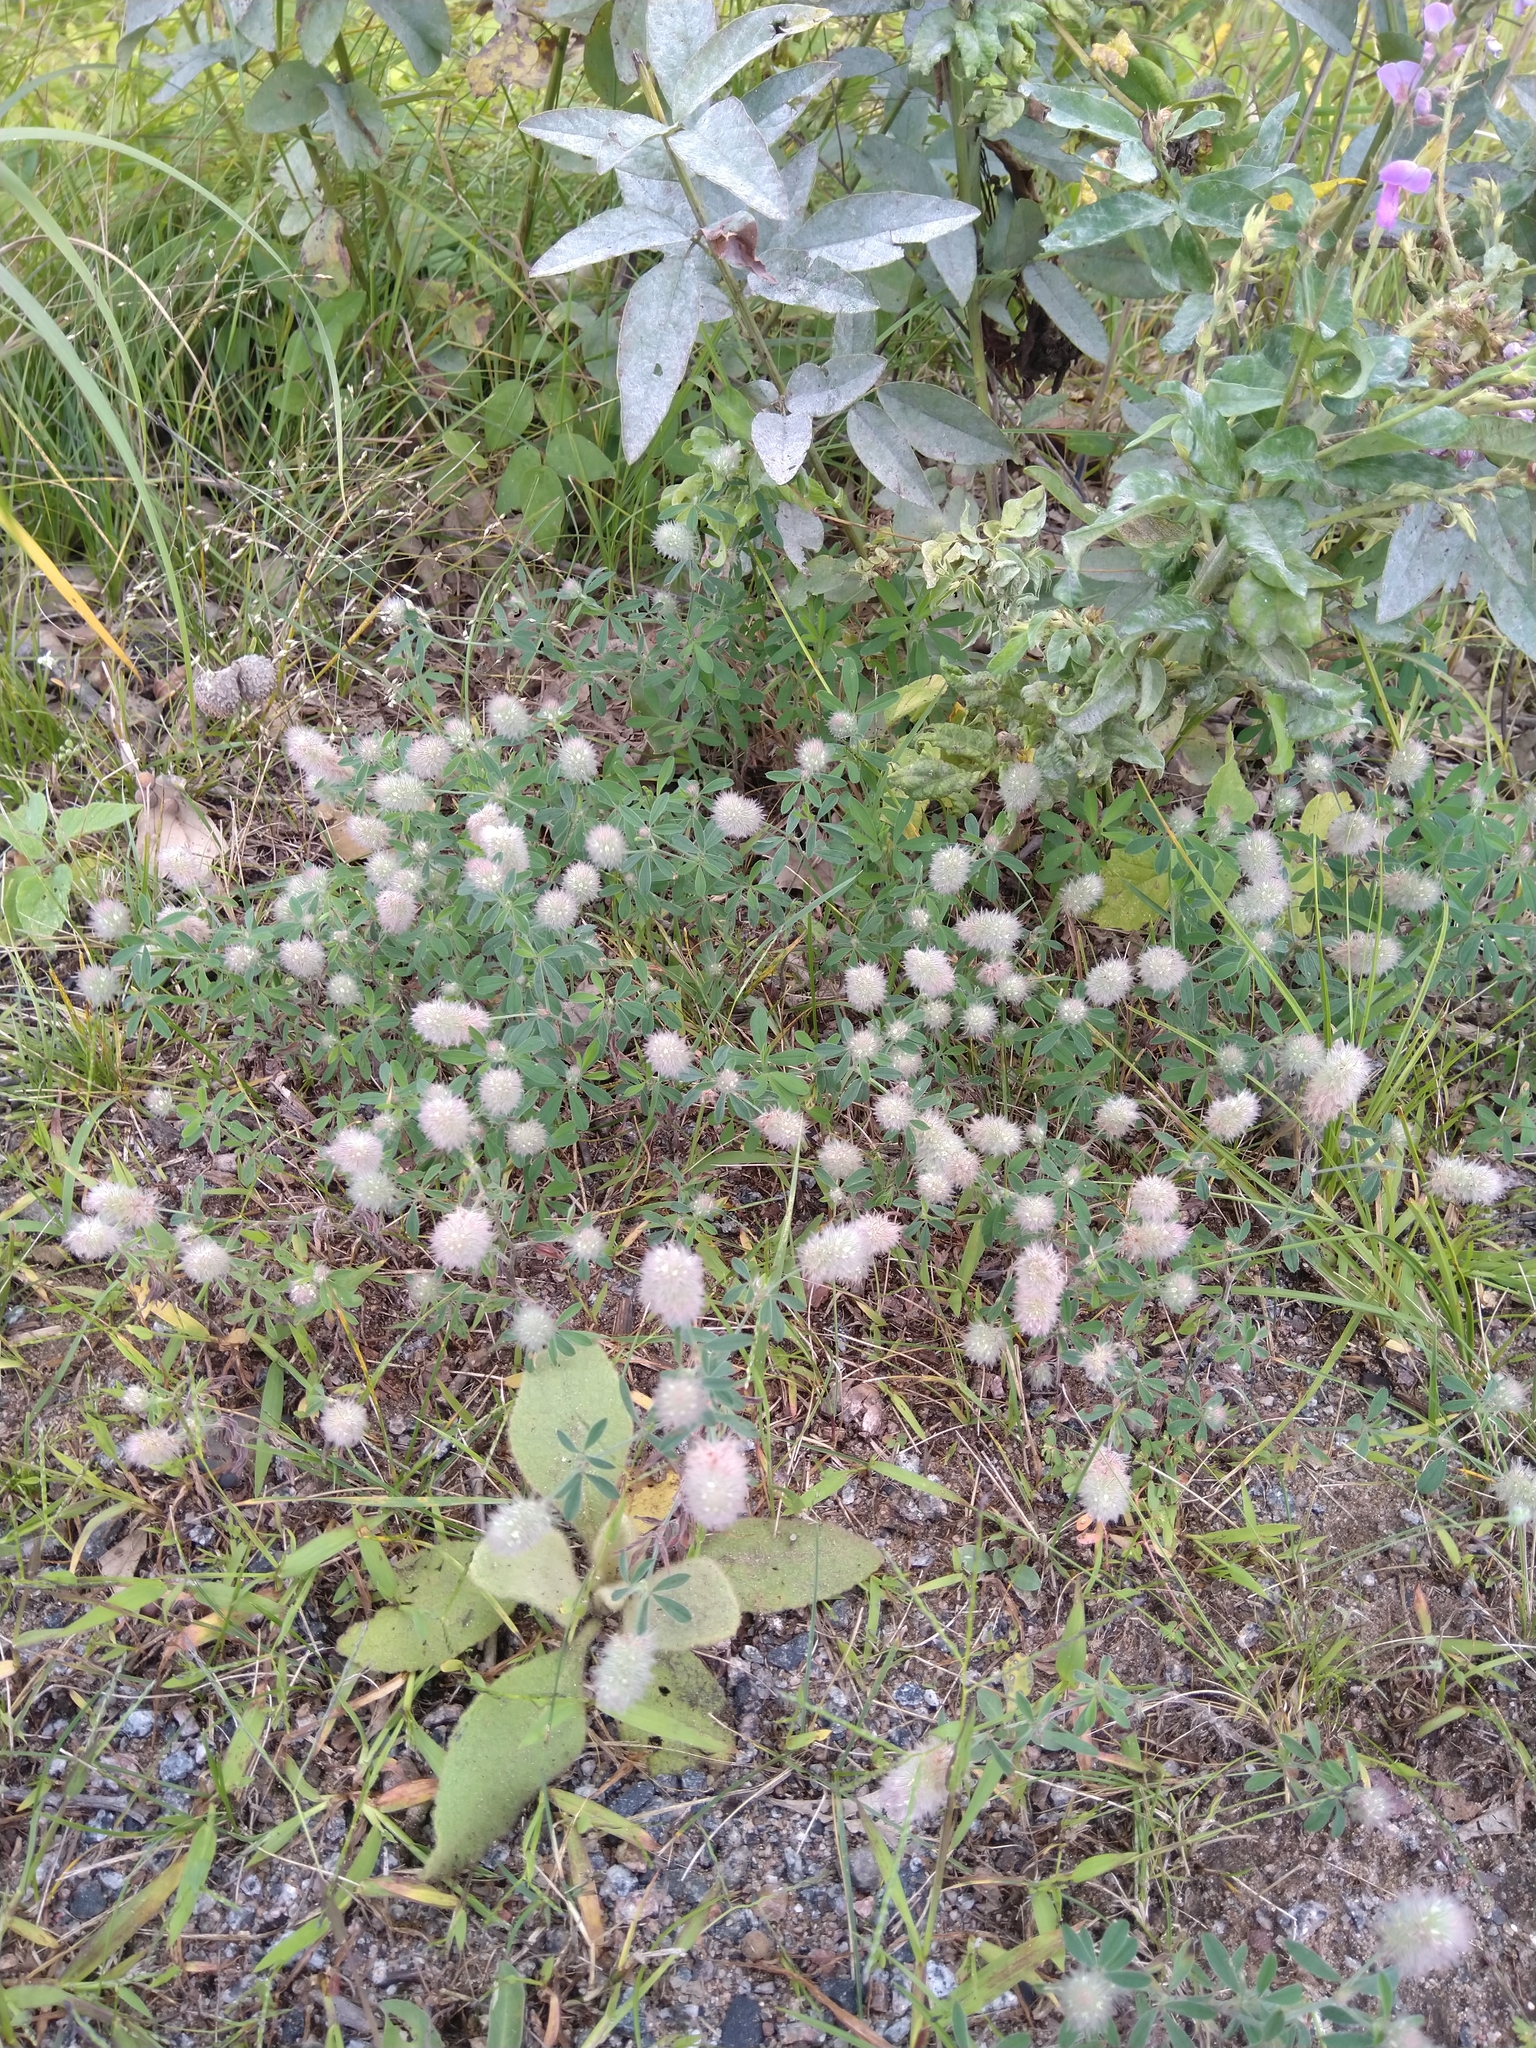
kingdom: Plantae
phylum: Tracheophyta
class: Magnoliopsida
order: Fabales
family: Fabaceae
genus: Trifolium
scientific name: Trifolium arvense
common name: Hare's-foot clover
